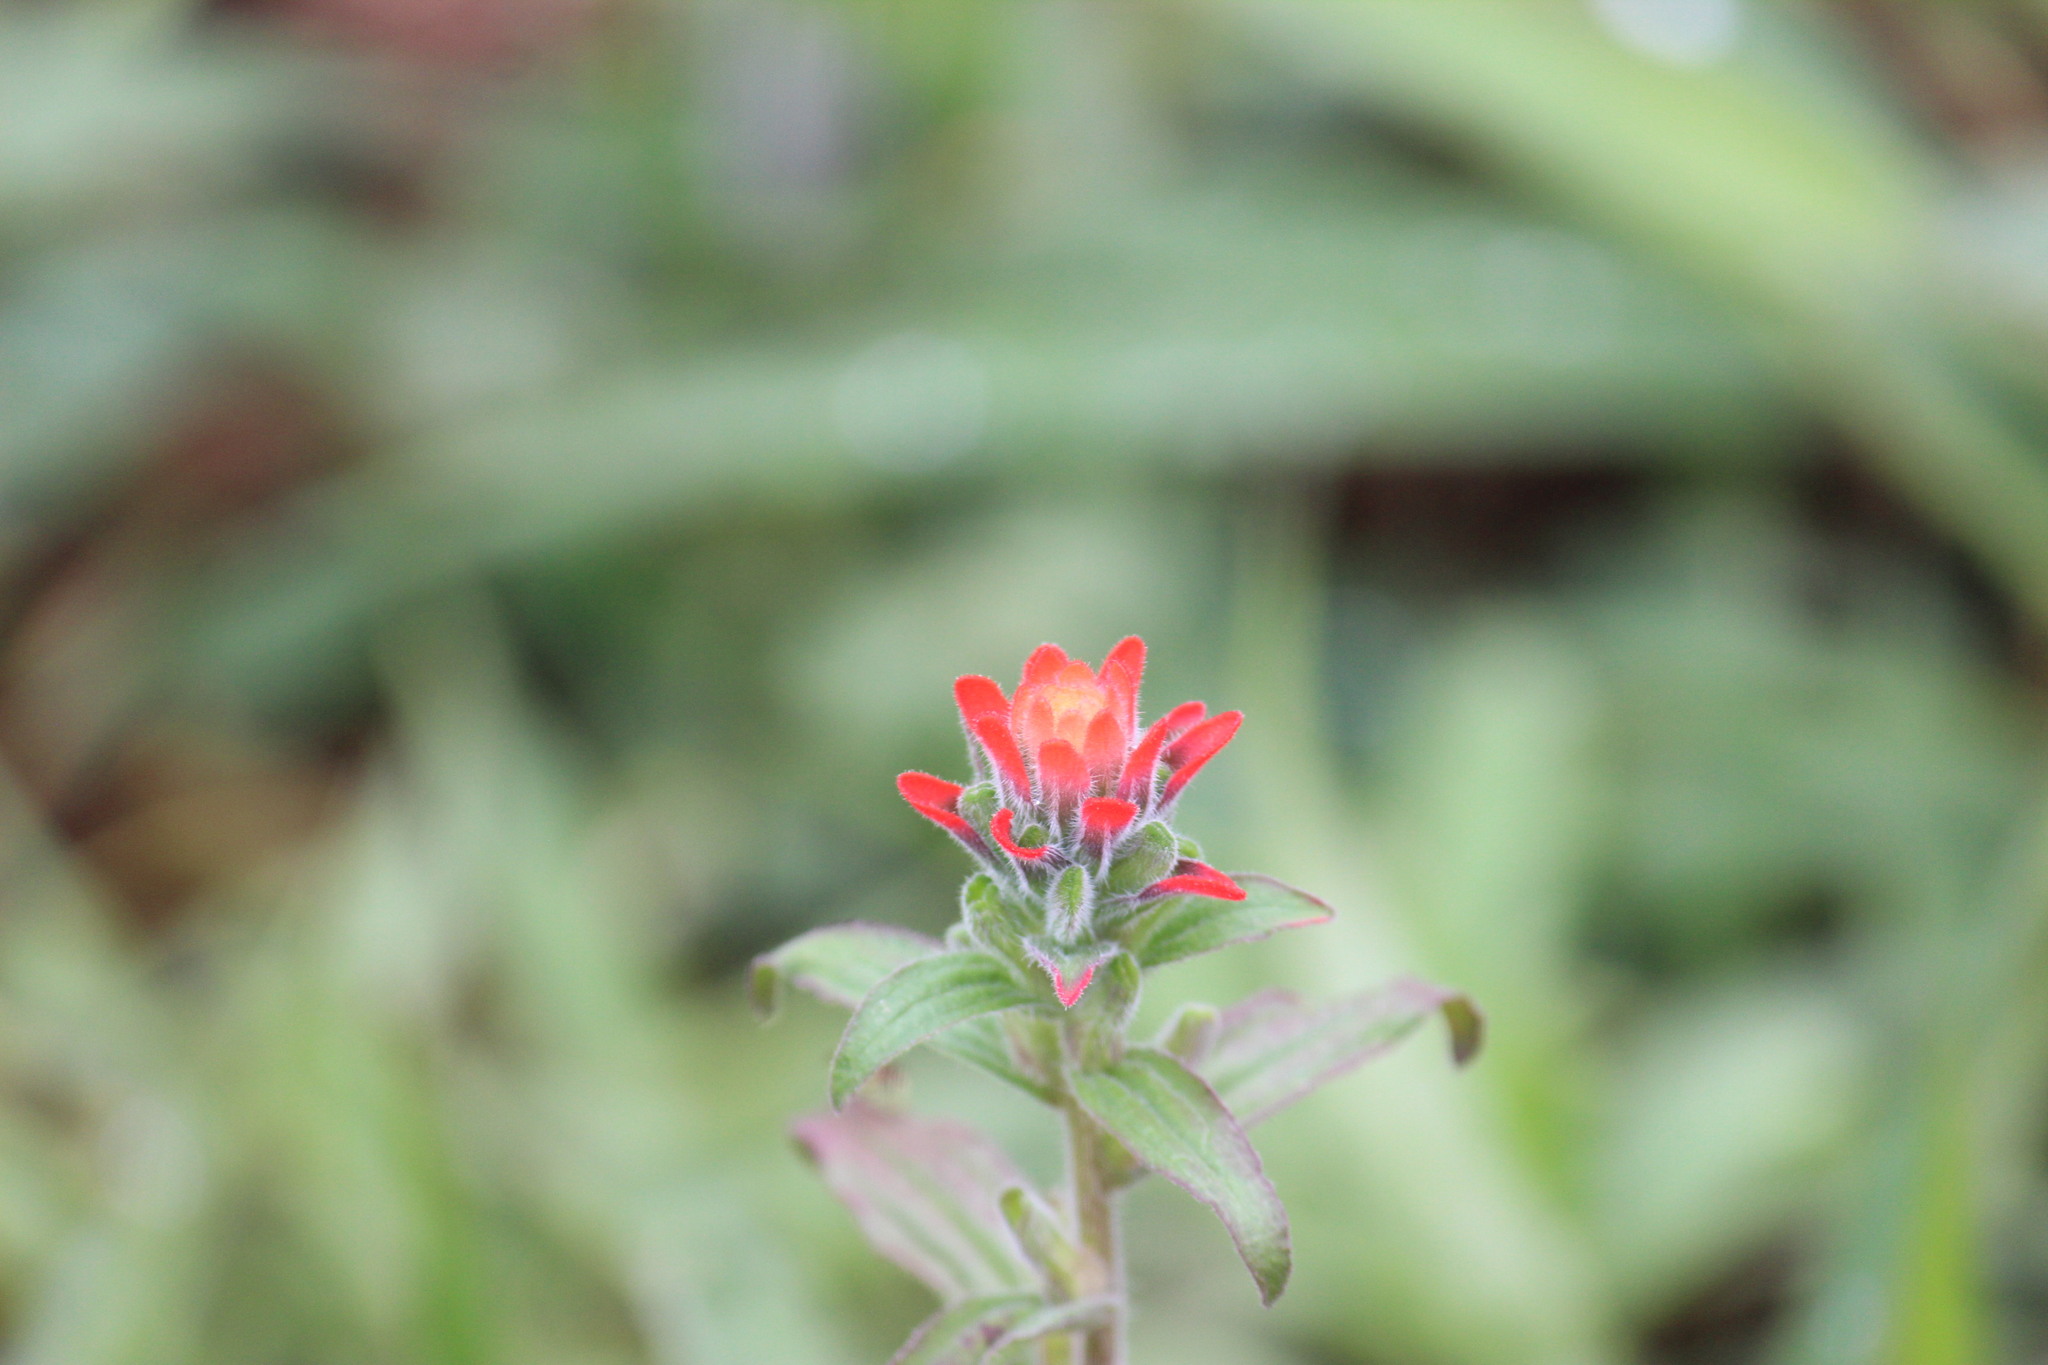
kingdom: Plantae
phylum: Tracheophyta
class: Magnoliopsida
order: Lamiales
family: Orobanchaceae
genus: Castilleja
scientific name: Castilleja arvensis
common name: Indian paintbrush
